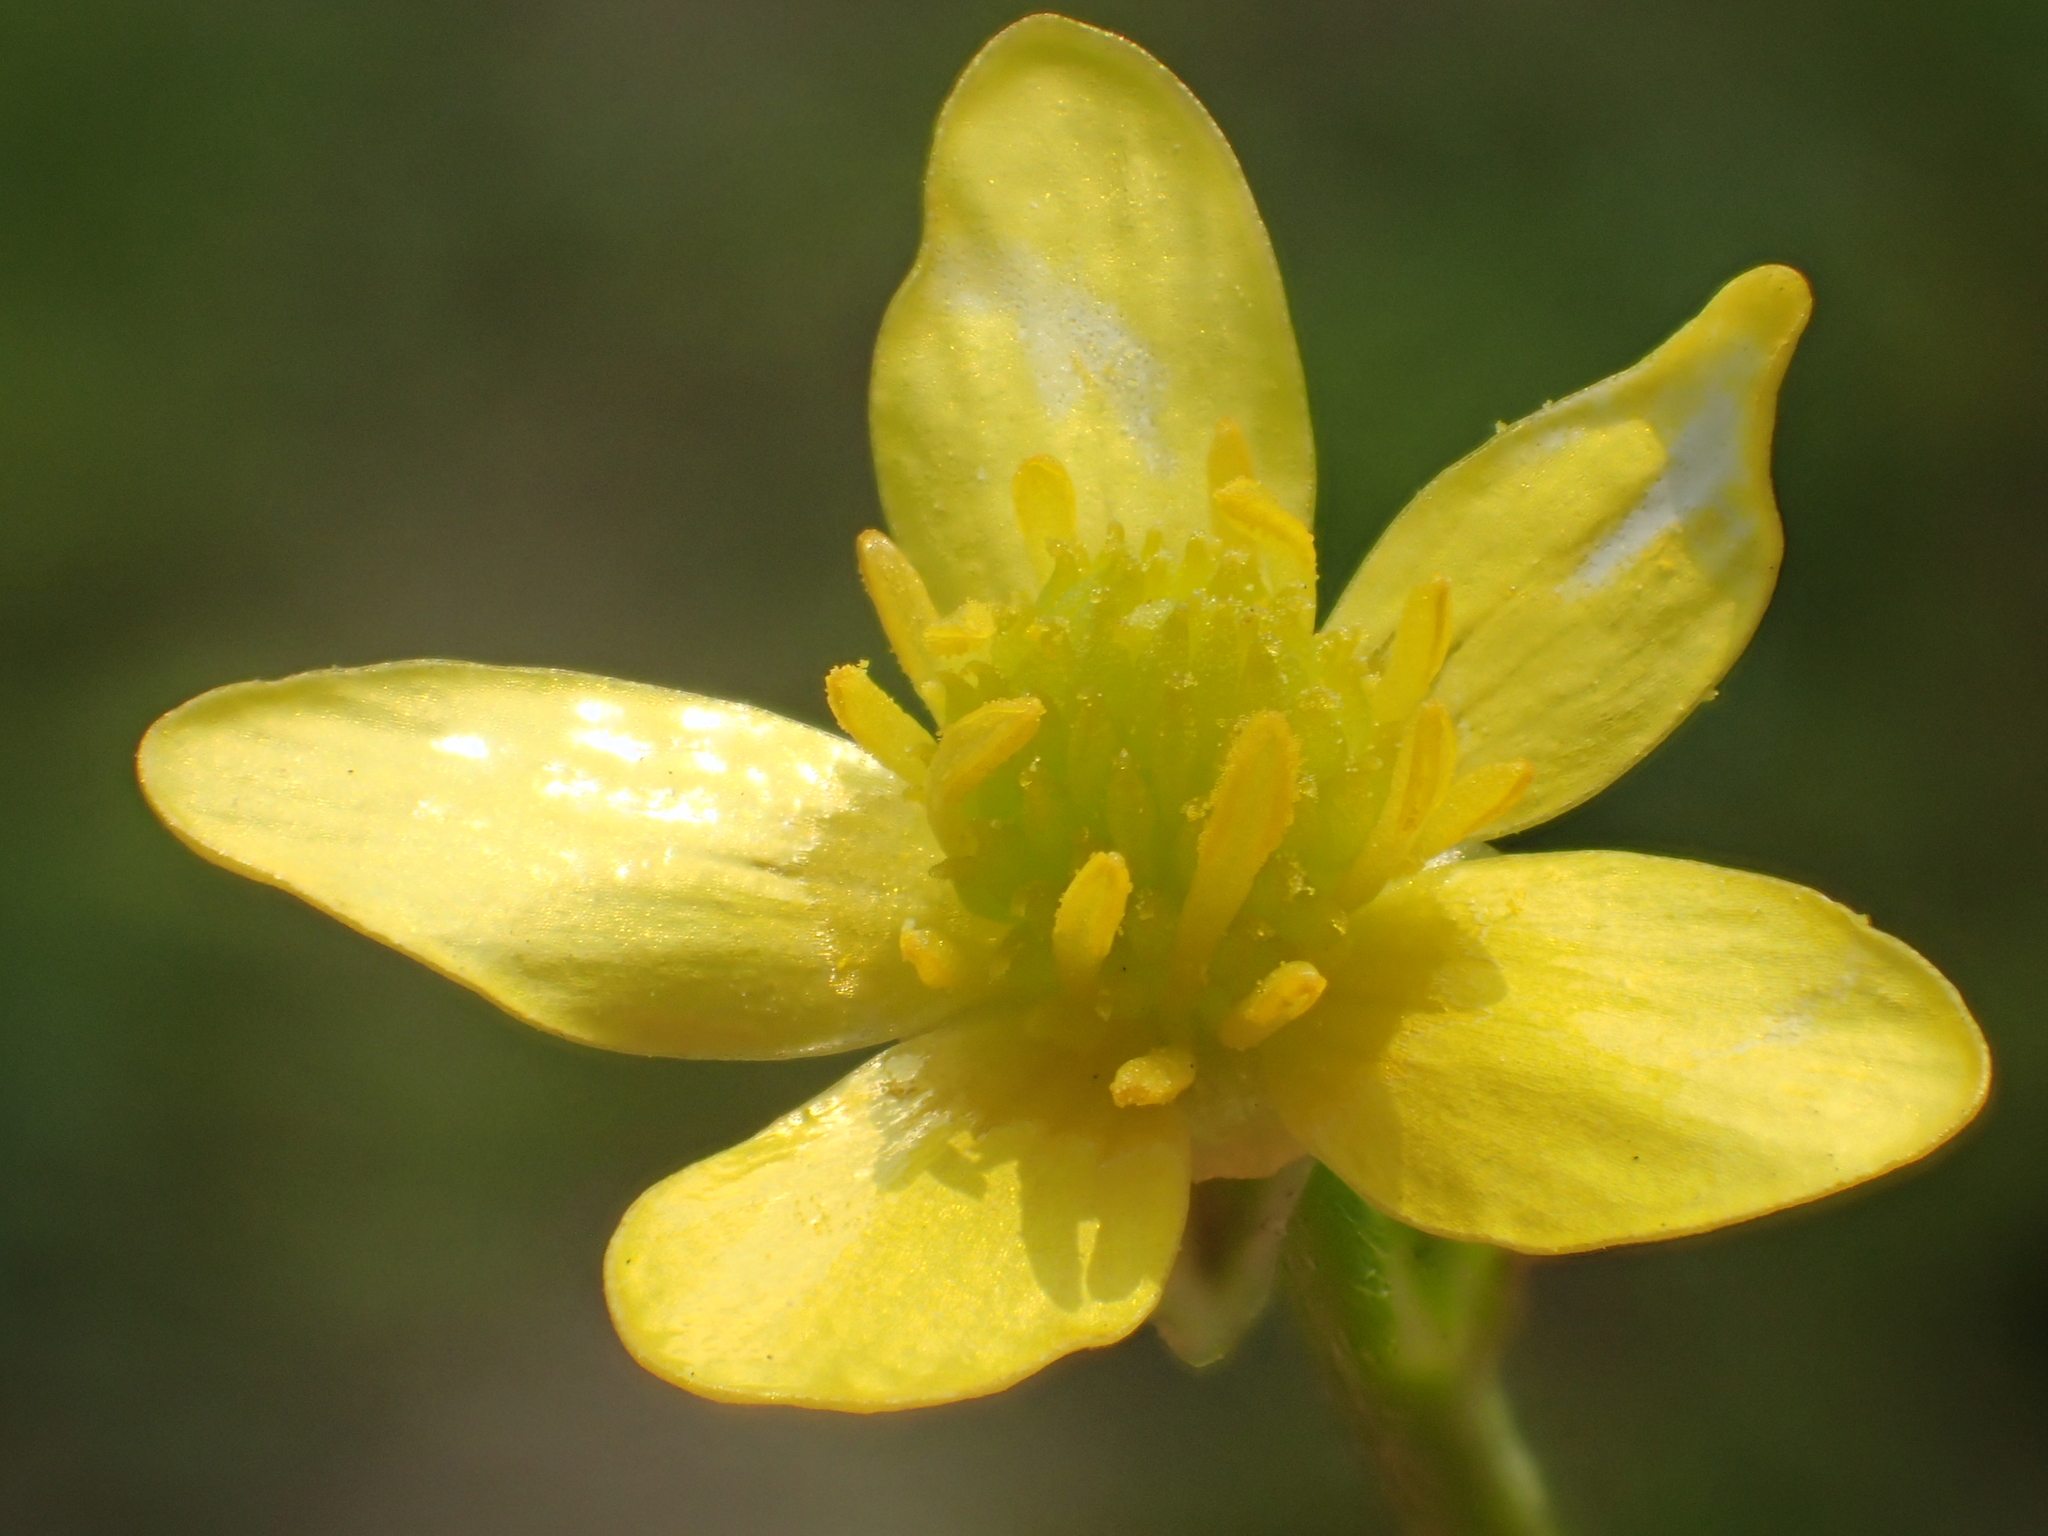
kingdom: Plantae
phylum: Tracheophyta
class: Magnoliopsida
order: Ranunculales
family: Ranunculaceae
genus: Ranunculus
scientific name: Ranunculus cantoniensis
